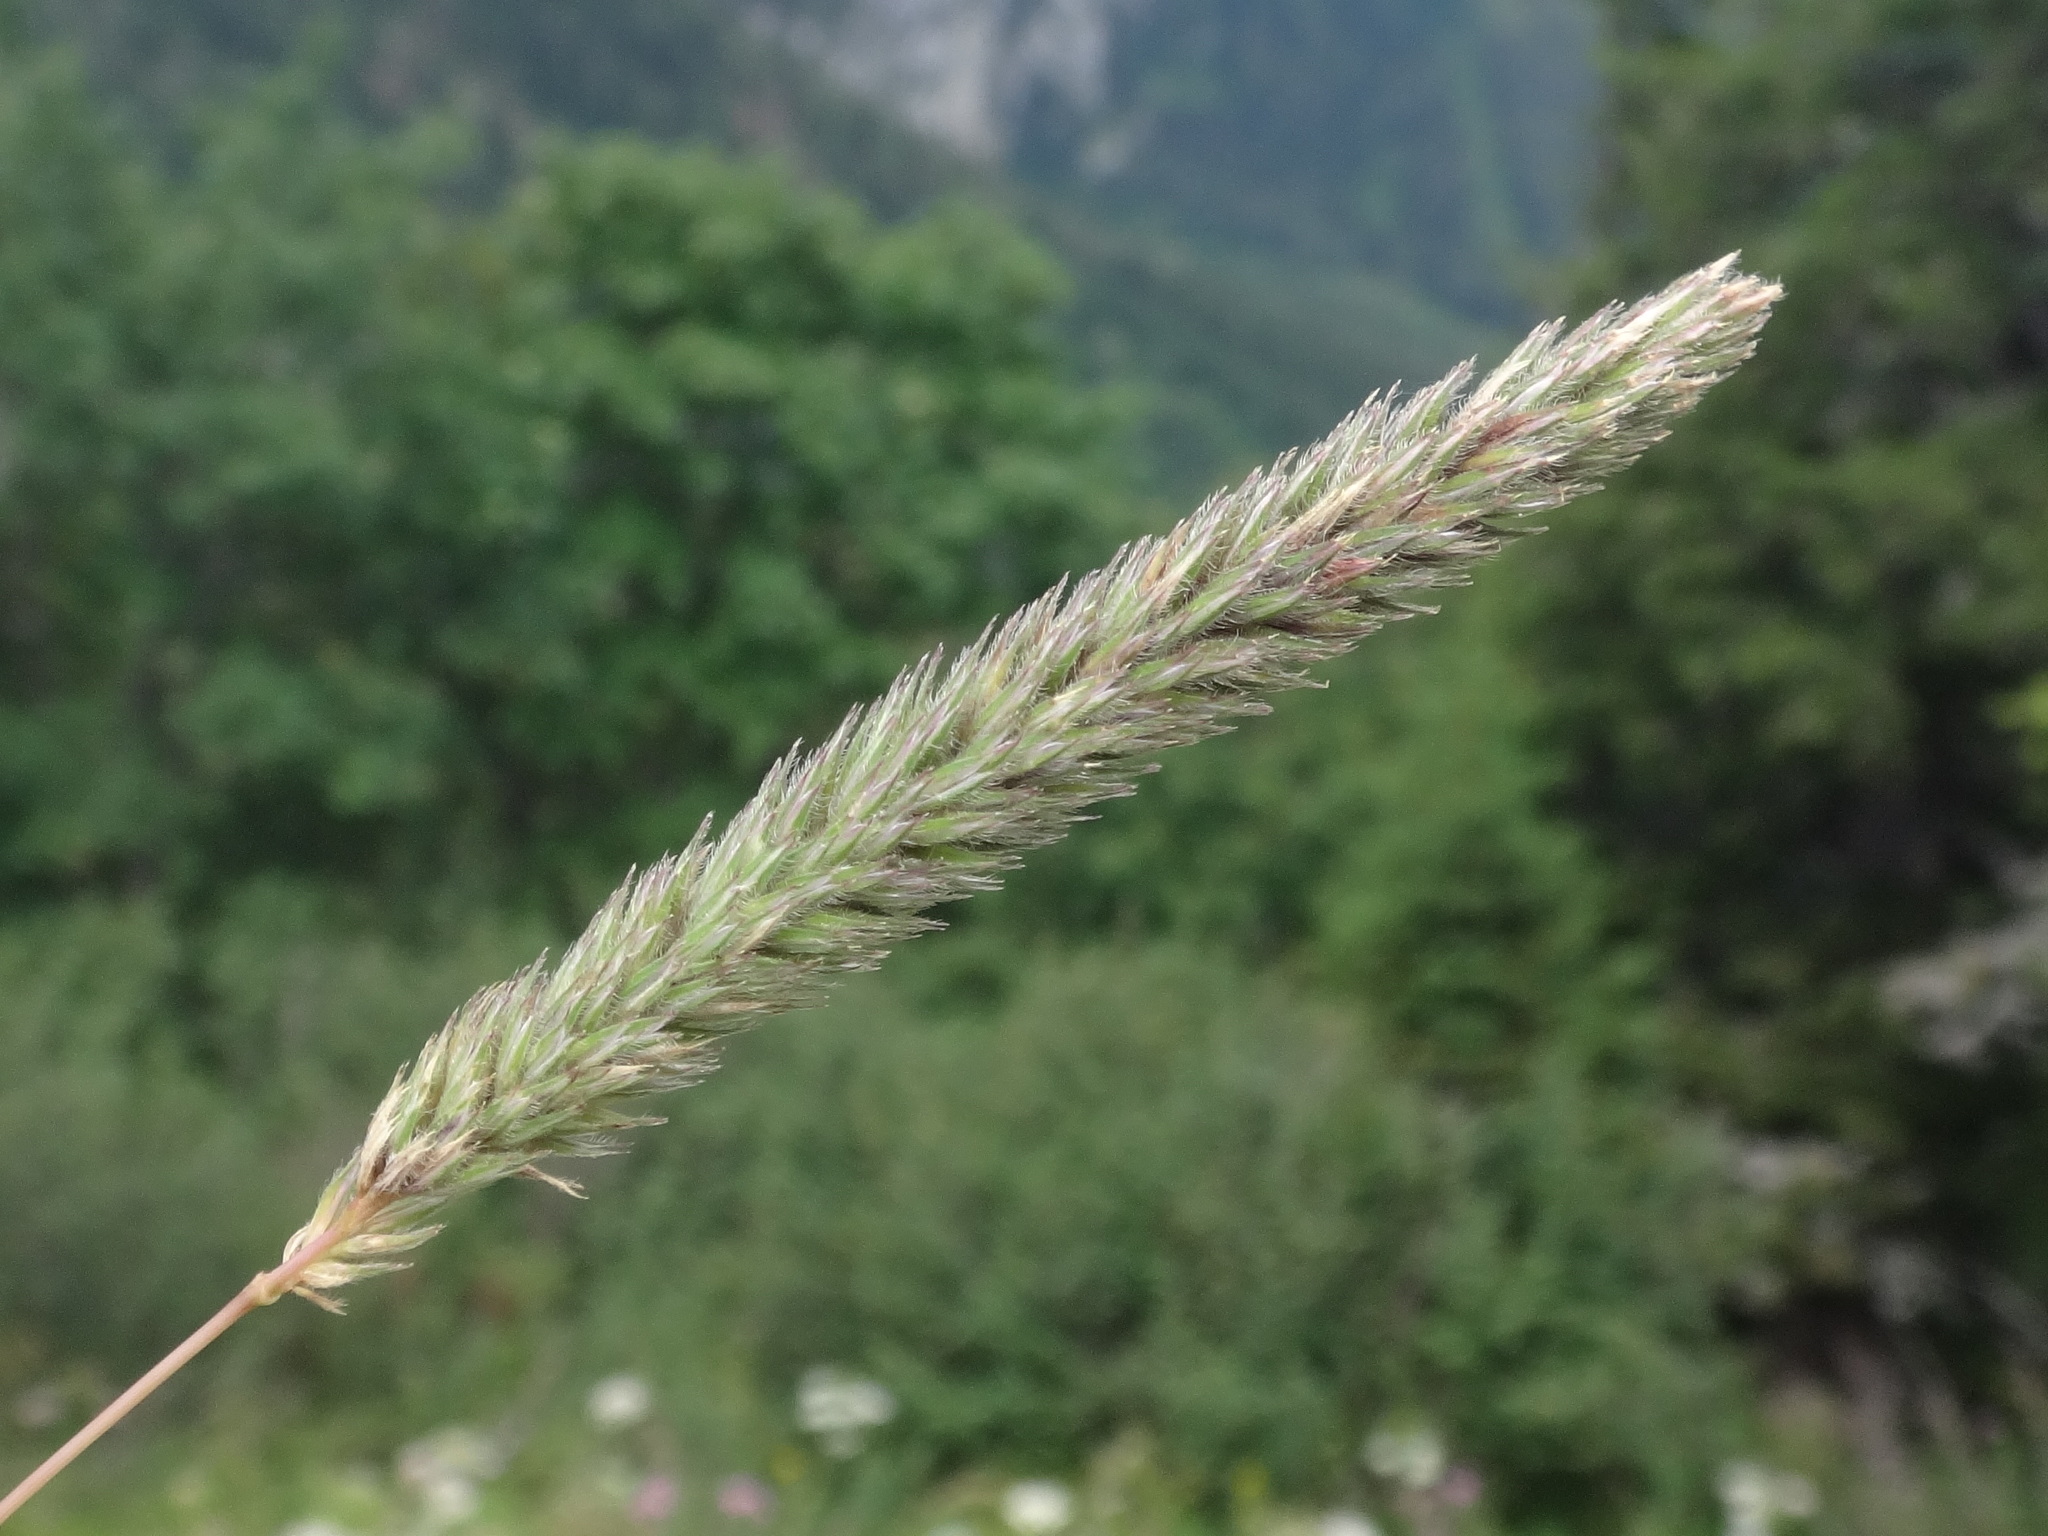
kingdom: Plantae
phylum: Tracheophyta
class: Liliopsida
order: Poales
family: Poaceae
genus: Phleum
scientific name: Phleum hirsutum
